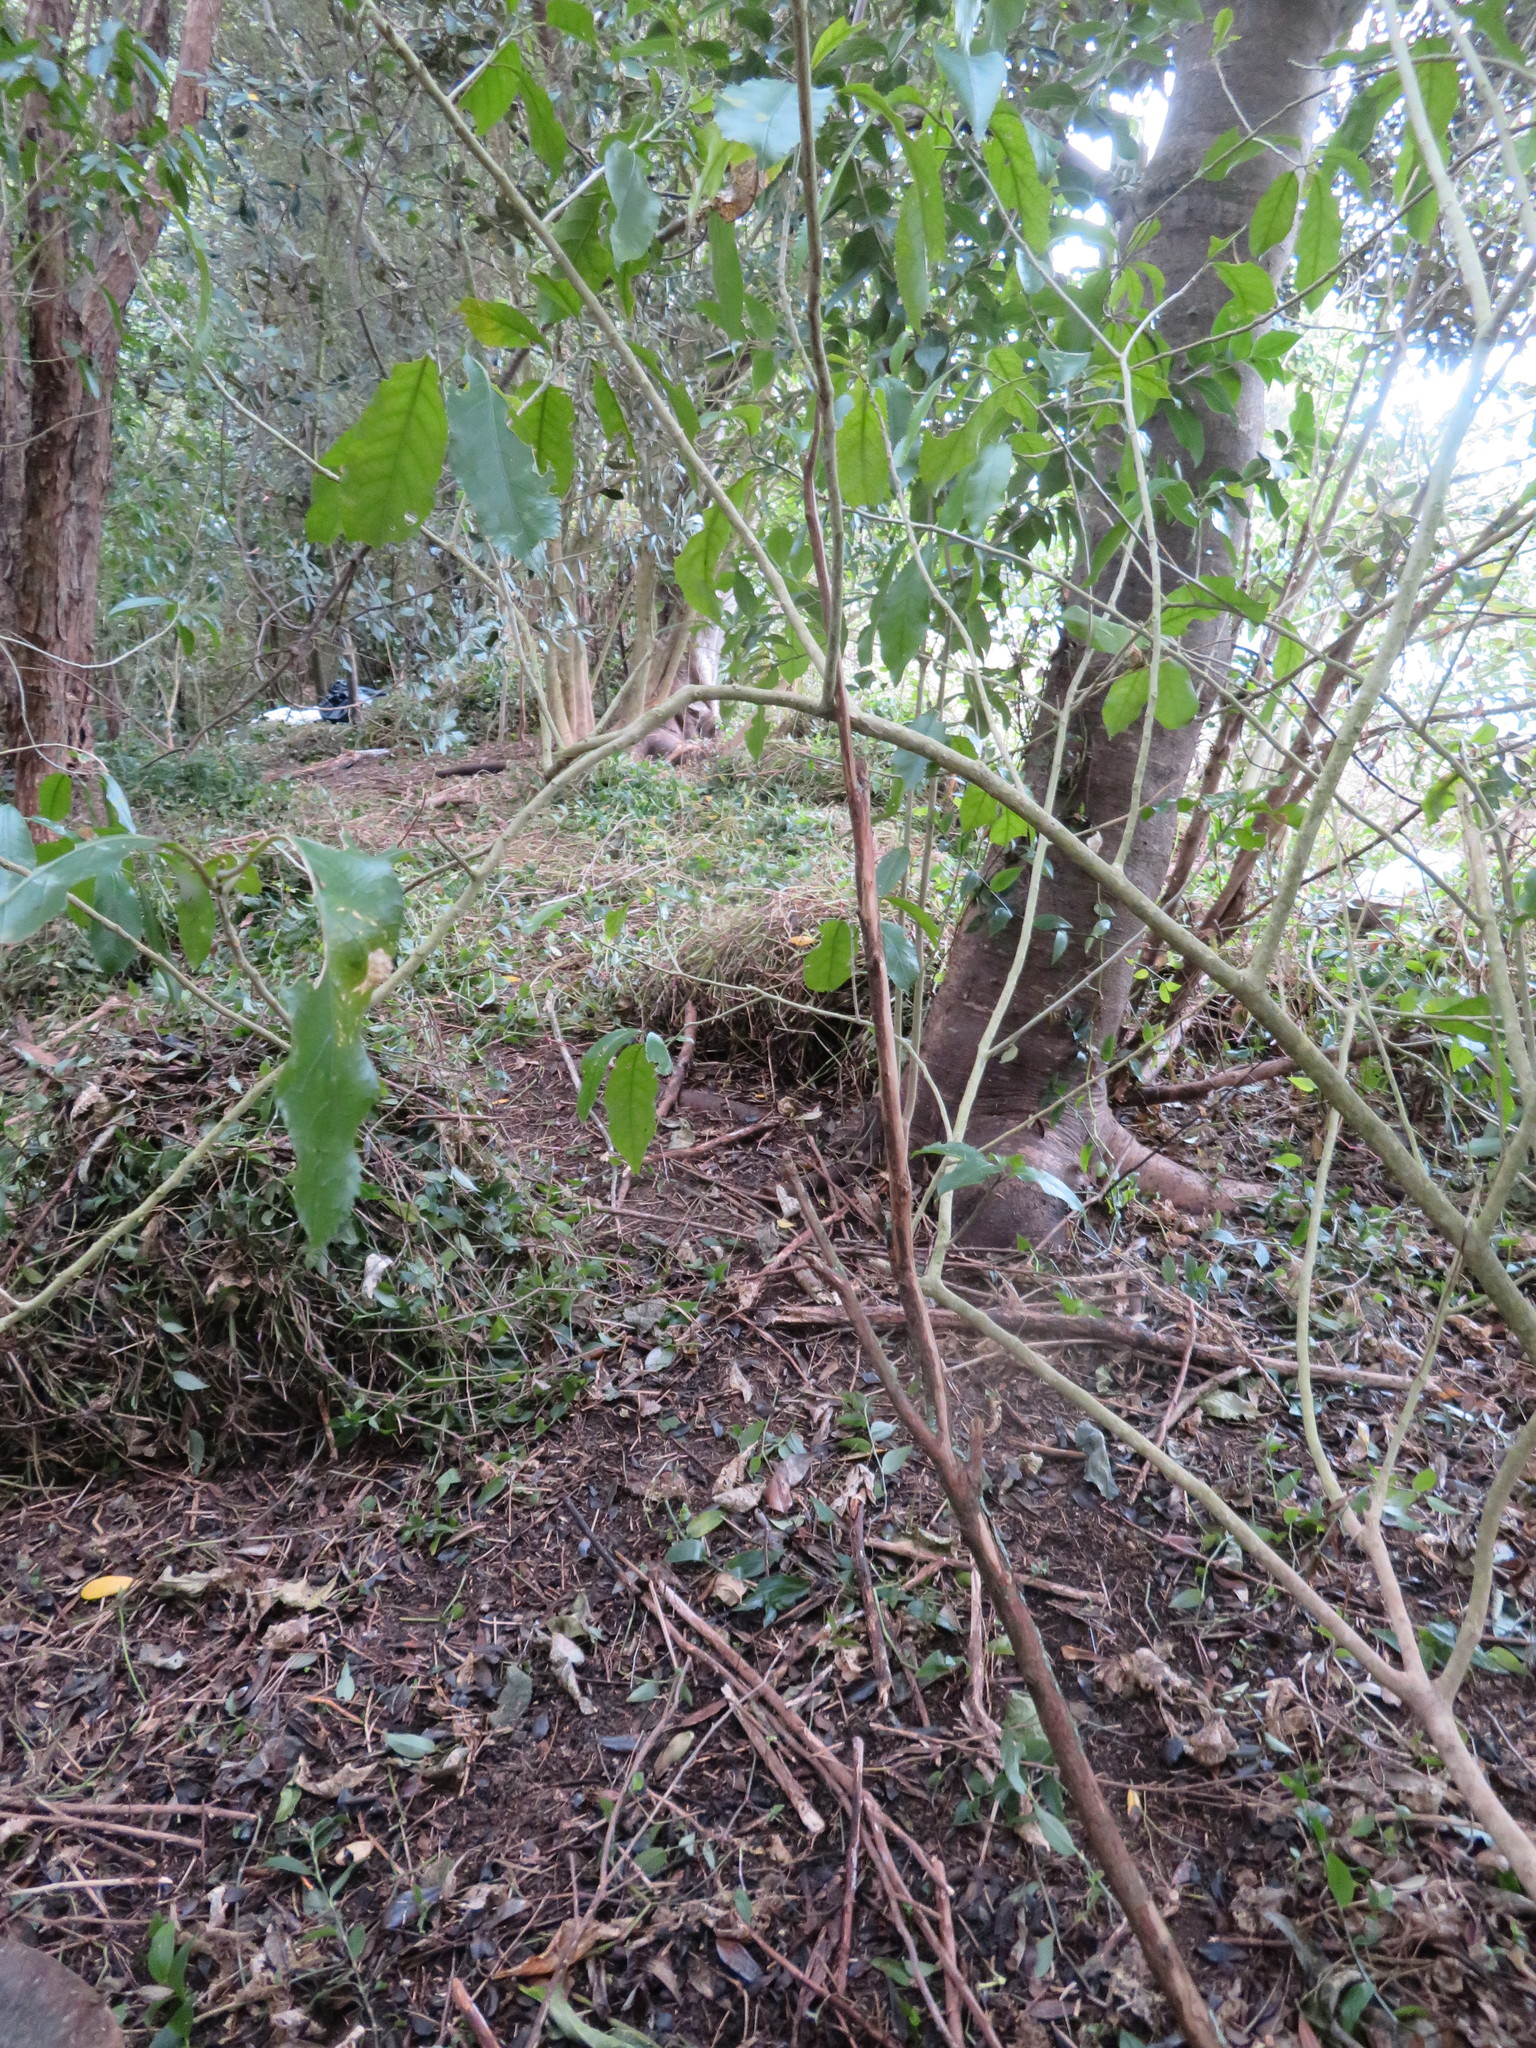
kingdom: Plantae
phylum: Tracheophyta
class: Liliopsida
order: Commelinales
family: Commelinaceae
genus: Tradescantia
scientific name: Tradescantia fluminensis
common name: Wandering-jew
